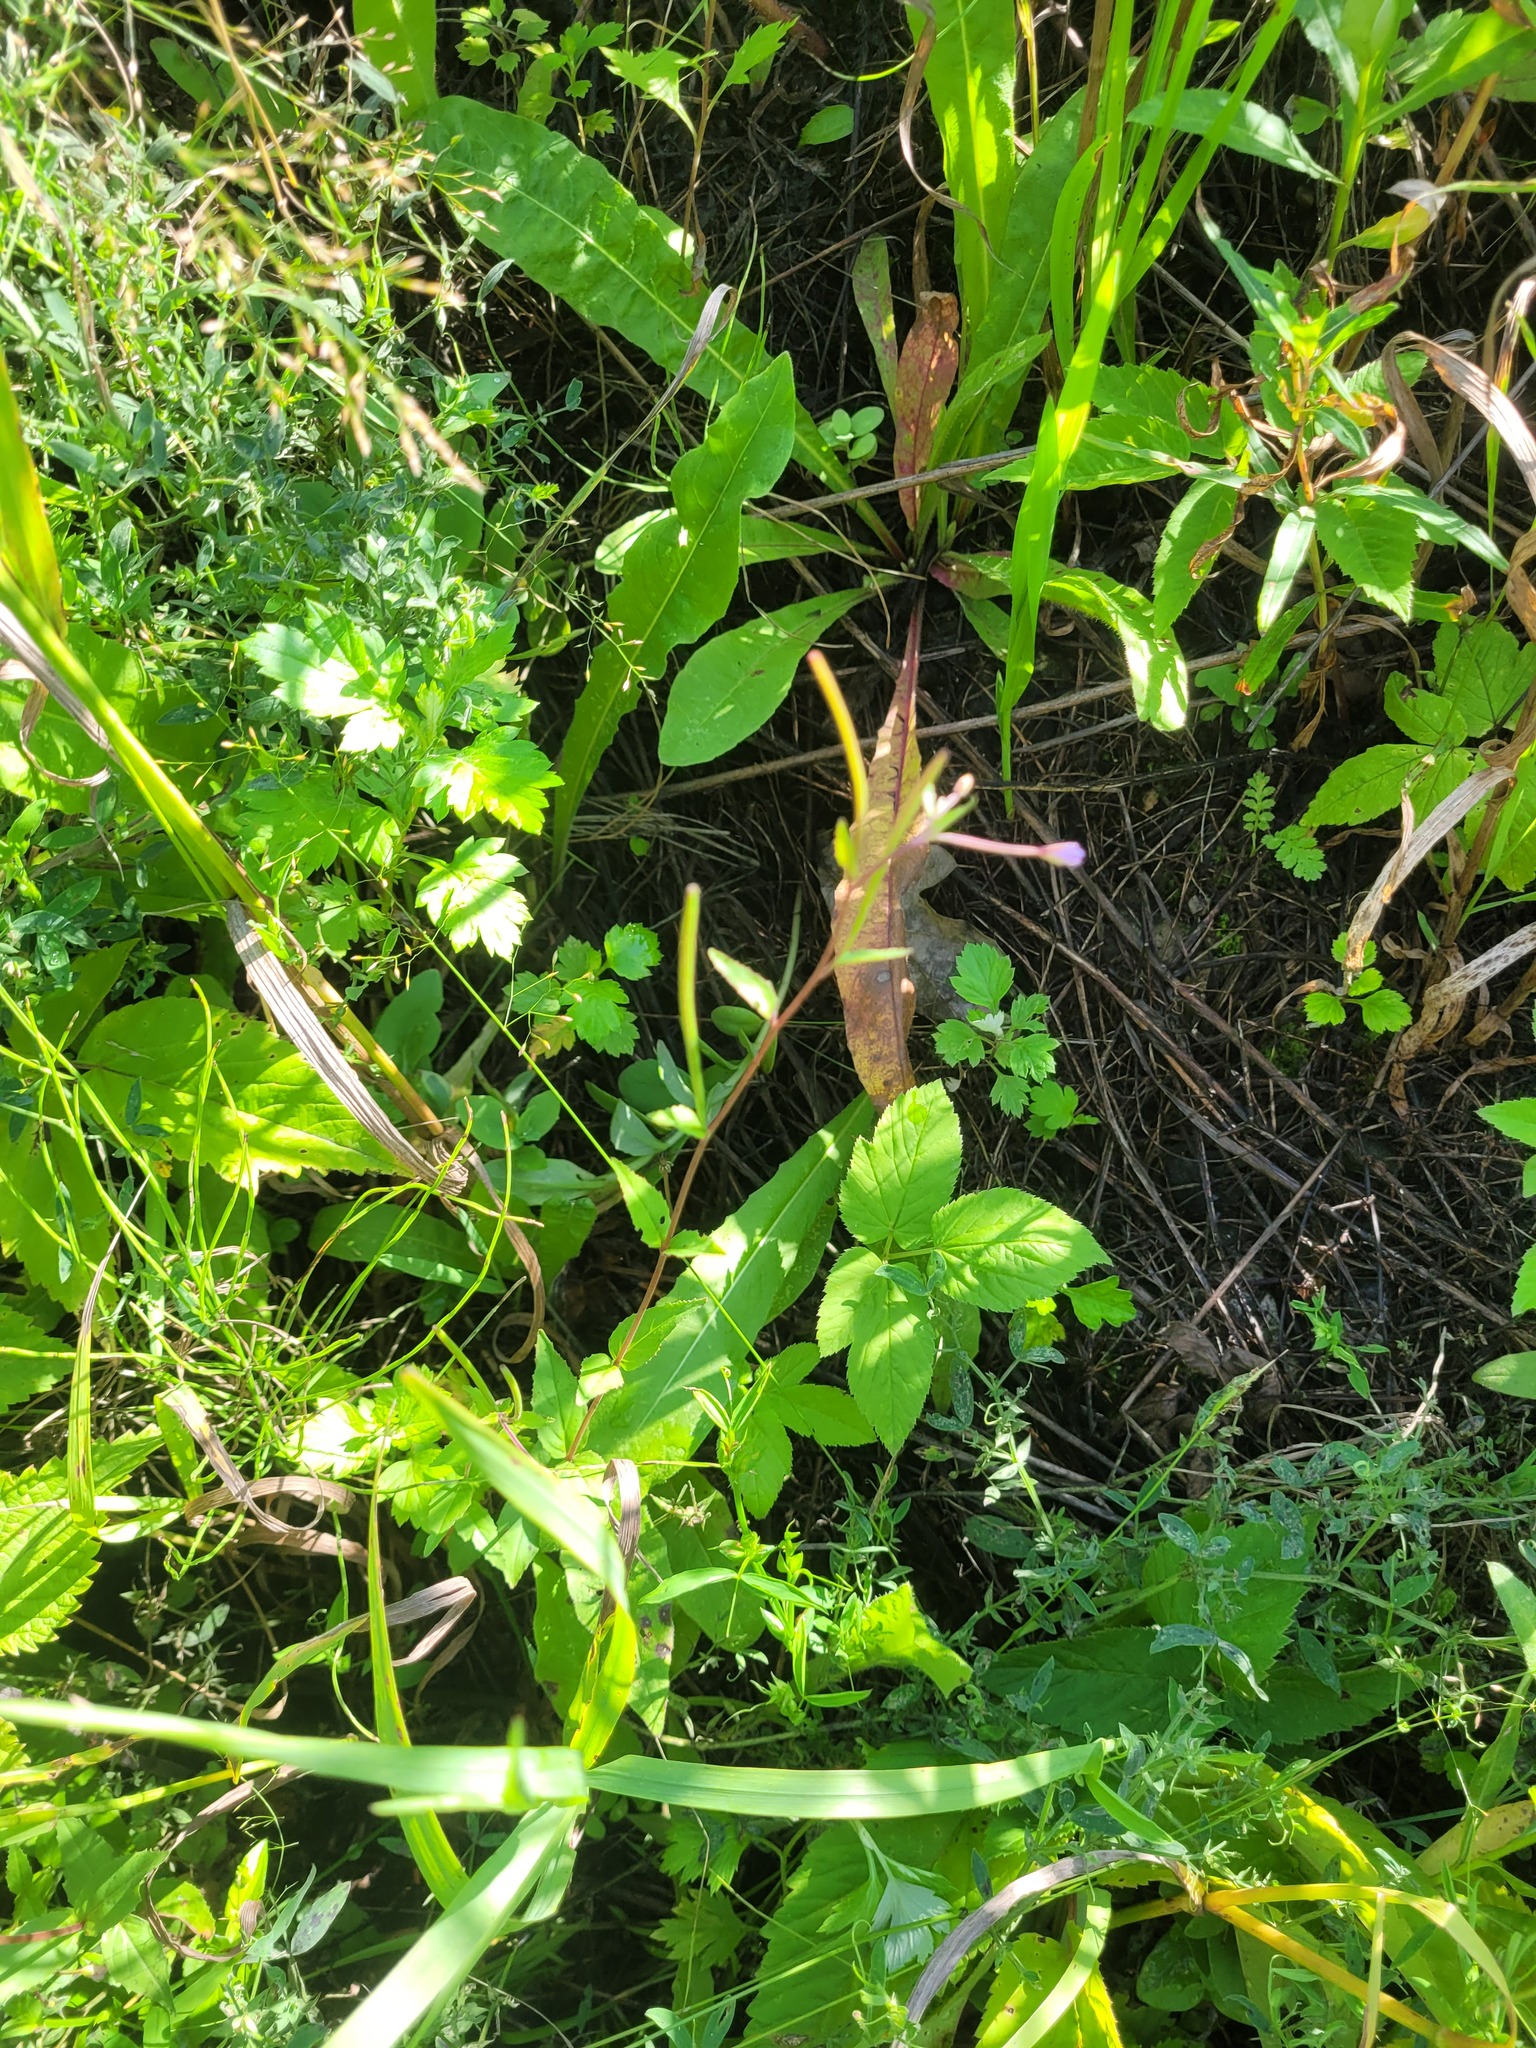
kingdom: Plantae
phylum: Tracheophyta
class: Magnoliopsida
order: Myrtales
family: Onagraceae
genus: Epilobium
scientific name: Epilobium montanum
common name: Broad-leaved willowherb
